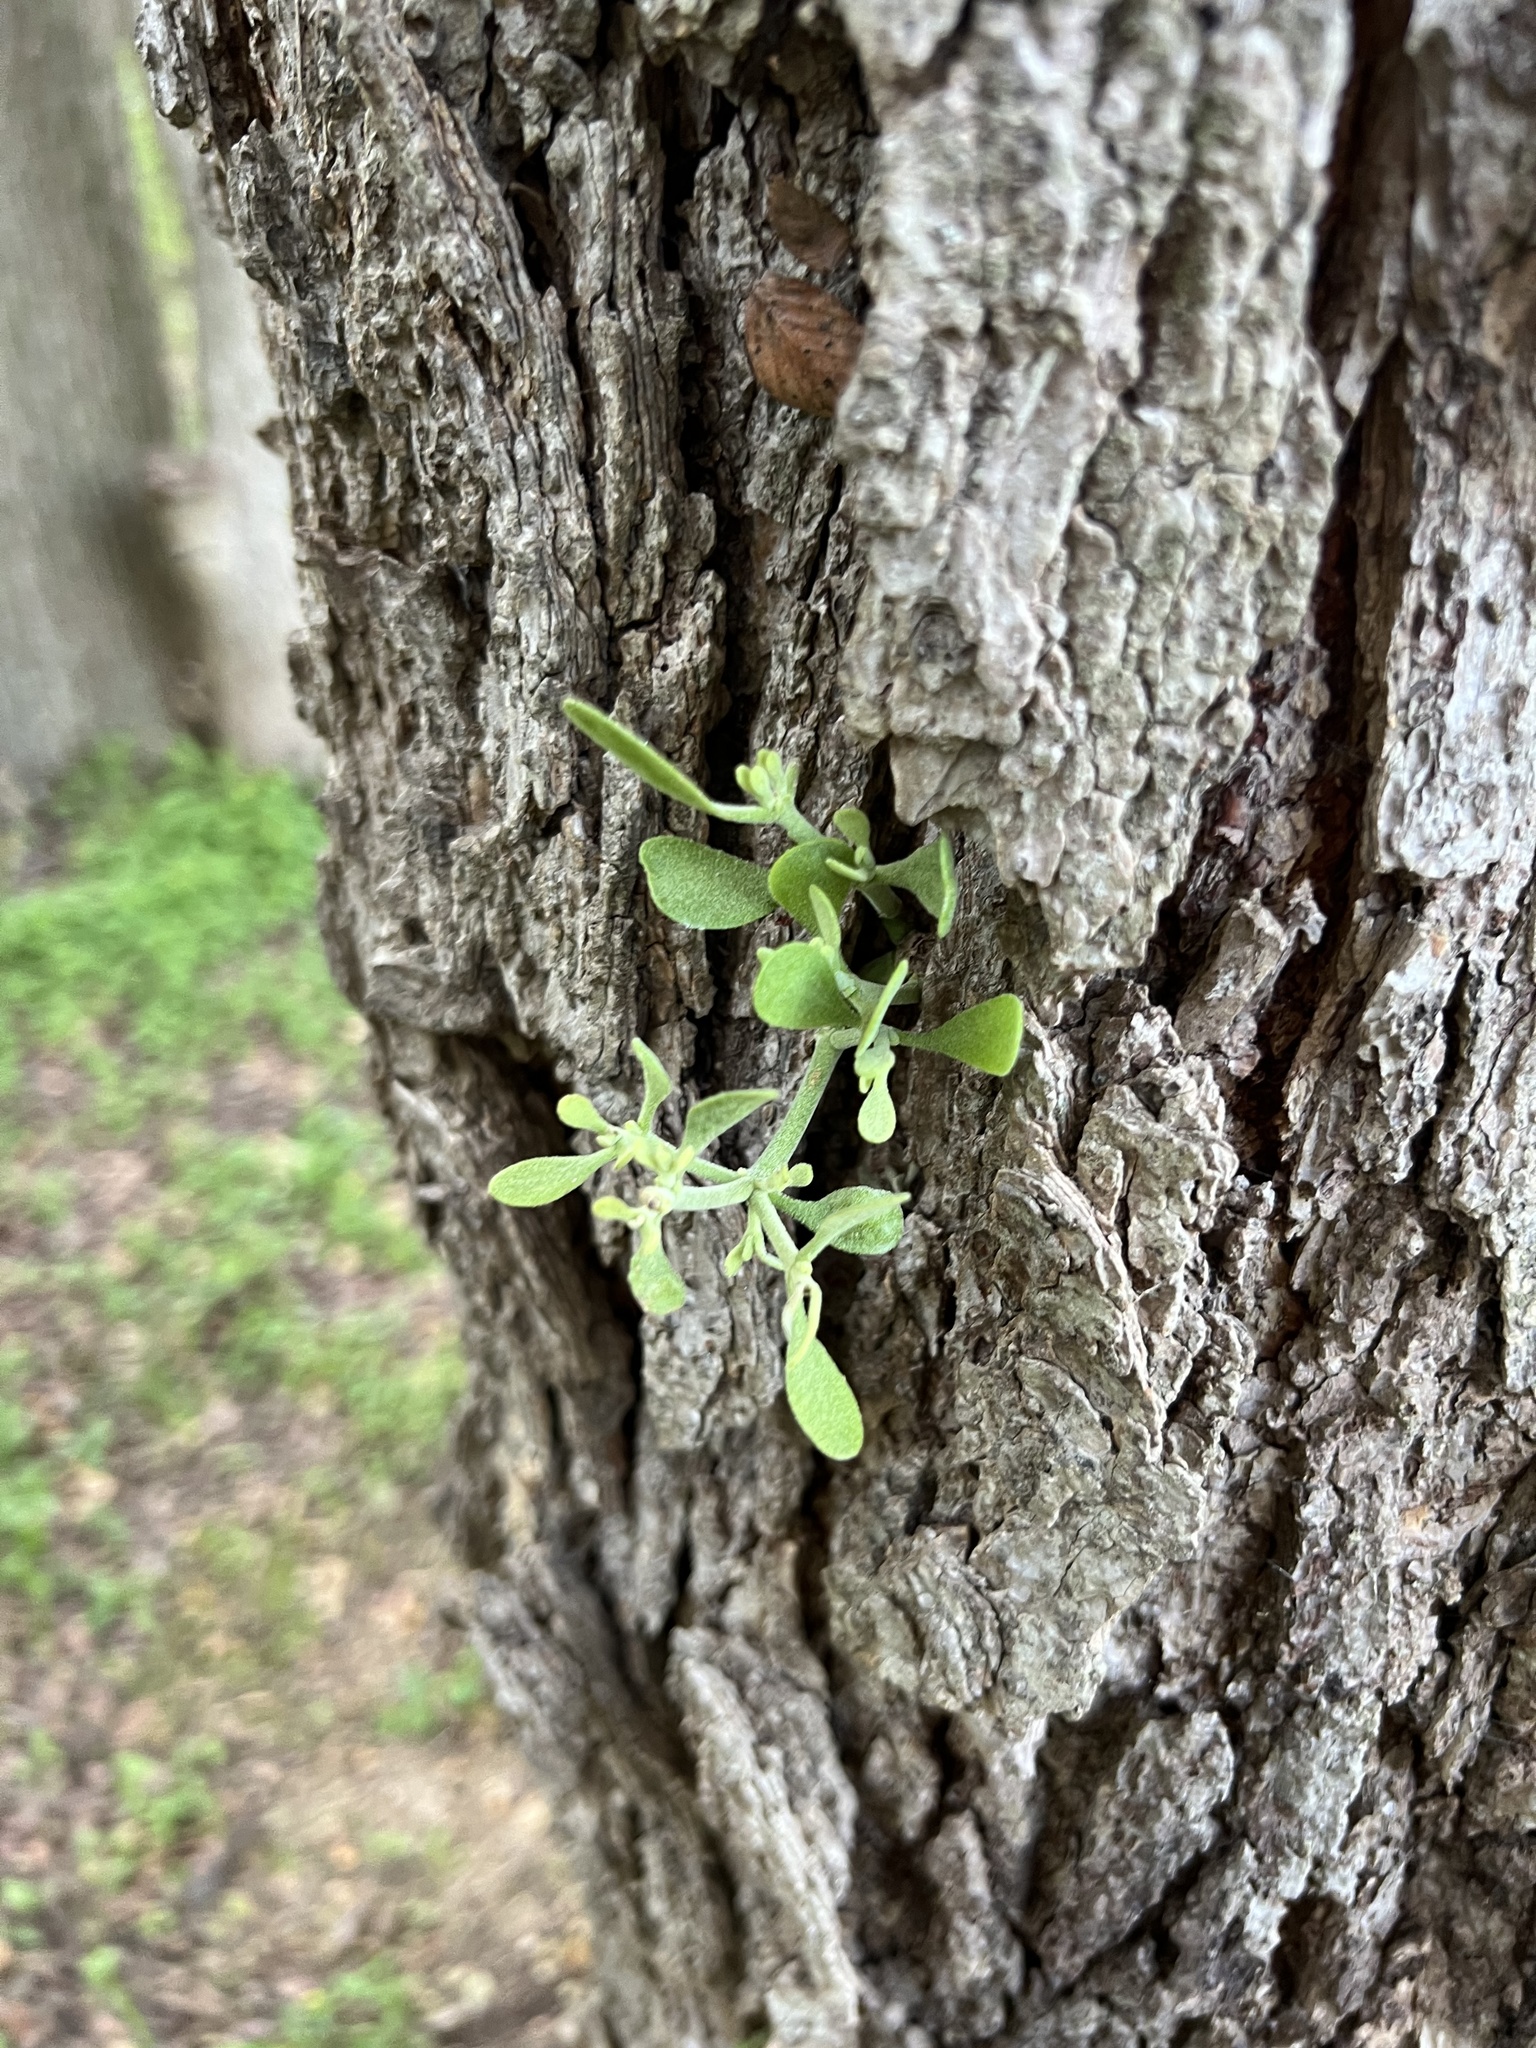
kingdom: Plantae
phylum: Tracheophyta
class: Magnoliopsida
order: Santalales
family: Viscaceae
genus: Phoradendron
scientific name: Phoradendron leucarpum
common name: Pacific mistletoe
